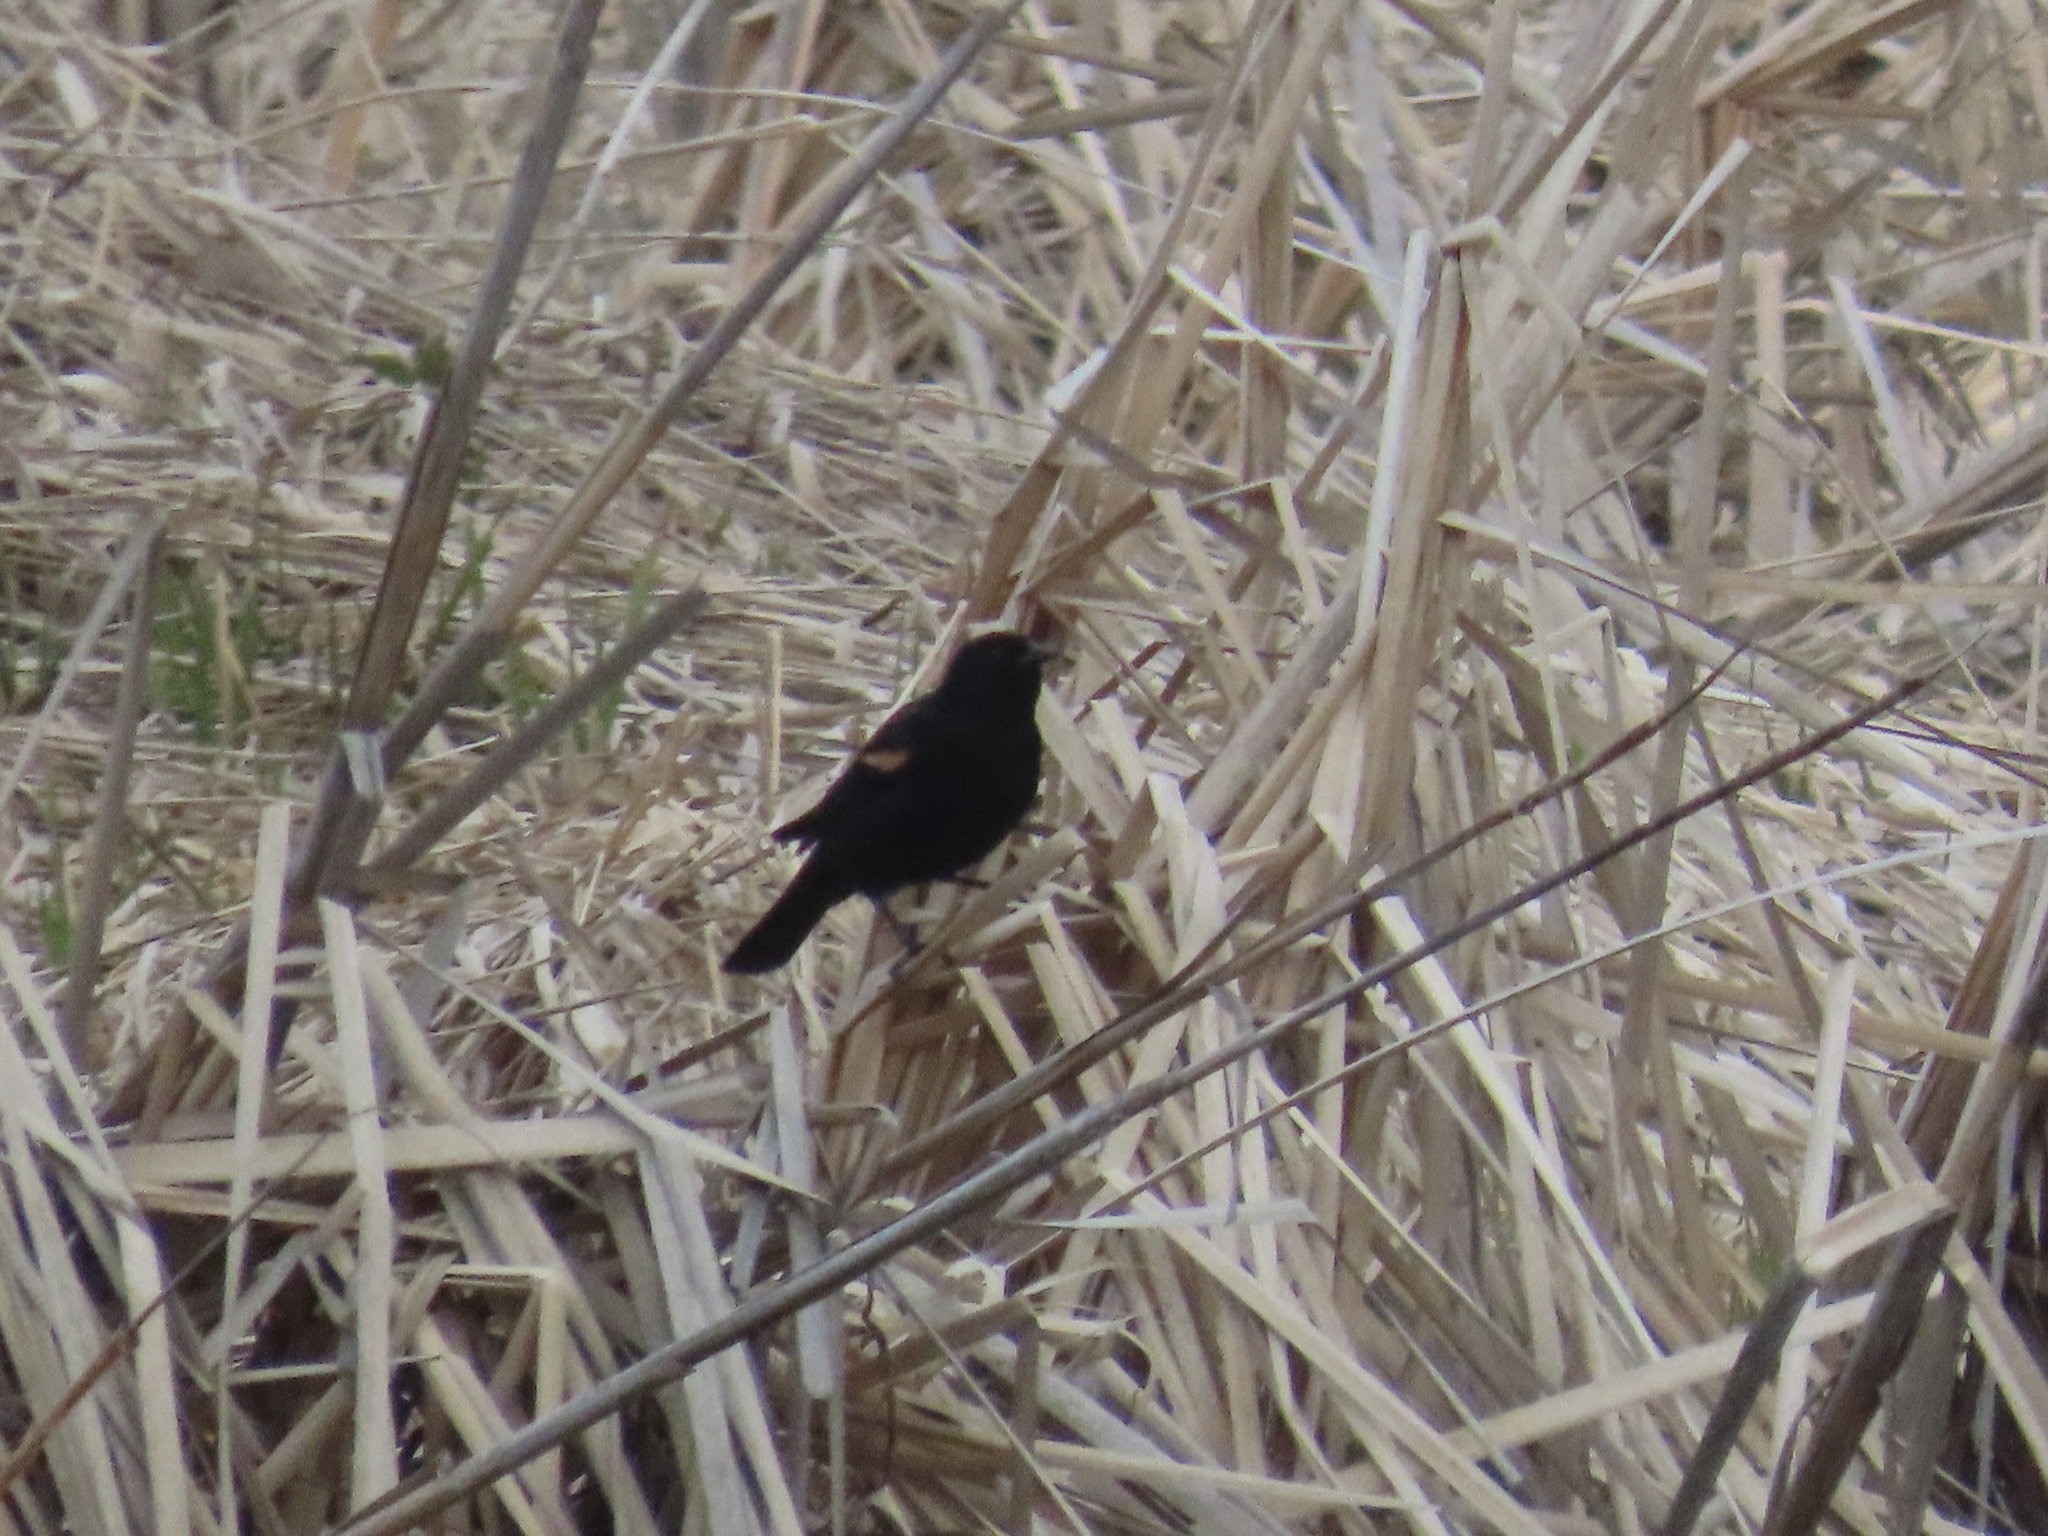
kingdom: Animalia
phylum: Chordata
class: Aves
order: Passeriformes
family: Icteridae
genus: Agelaius
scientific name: Agelaius phoeniceus
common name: Red-winged blackbird
